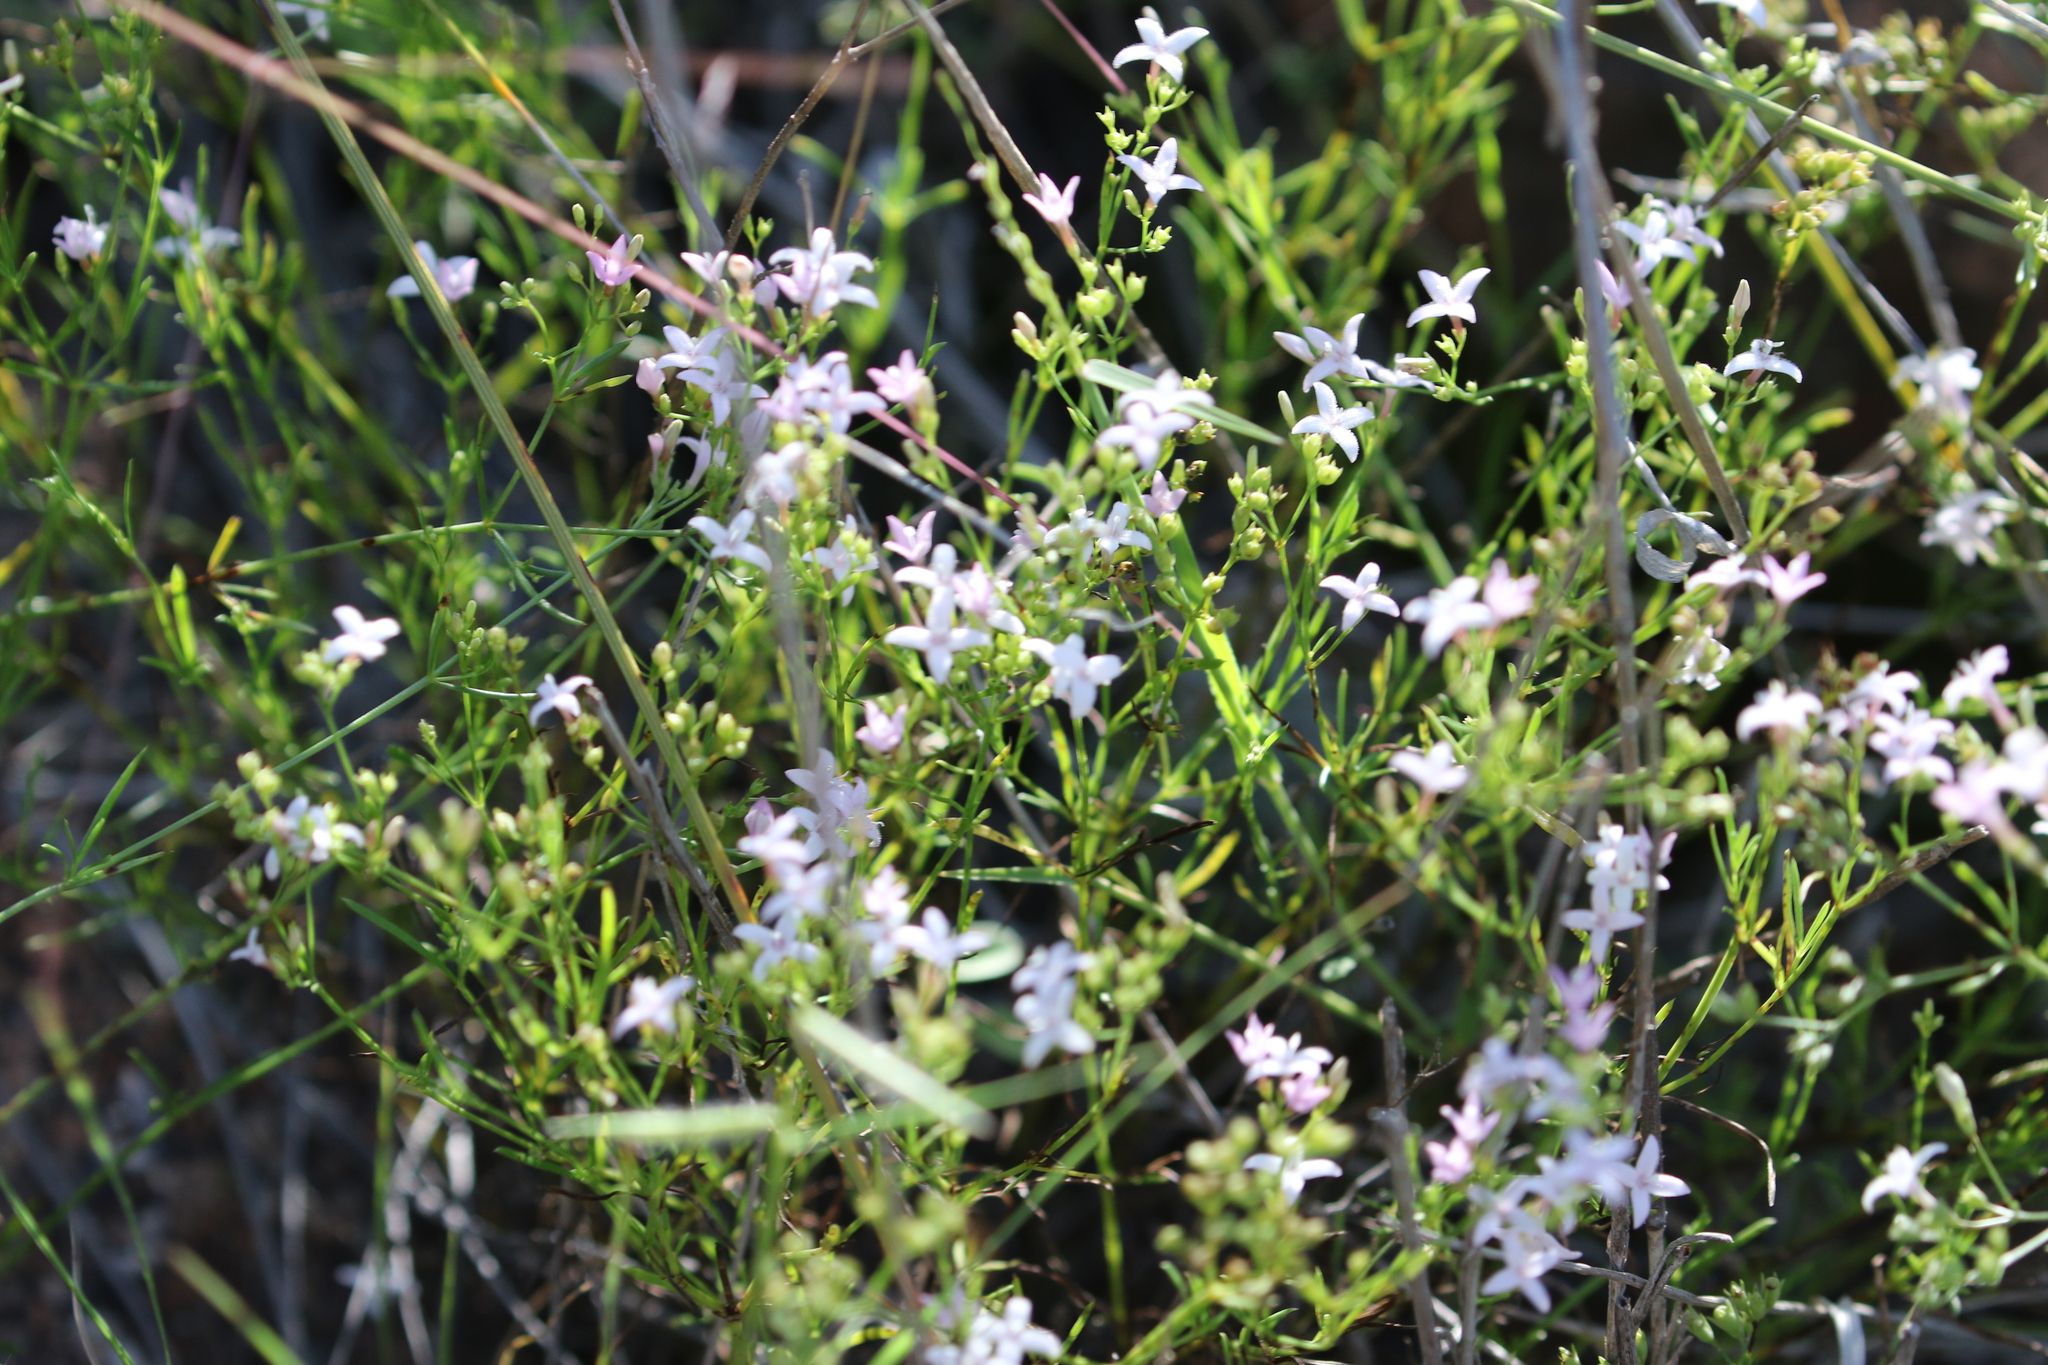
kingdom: Plantae
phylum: Tracheophyta
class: Magnoliopsida
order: Gentianales
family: Rubiaceae
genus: Stenaria
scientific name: Stenaria nigricans
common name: Diamondflowers
